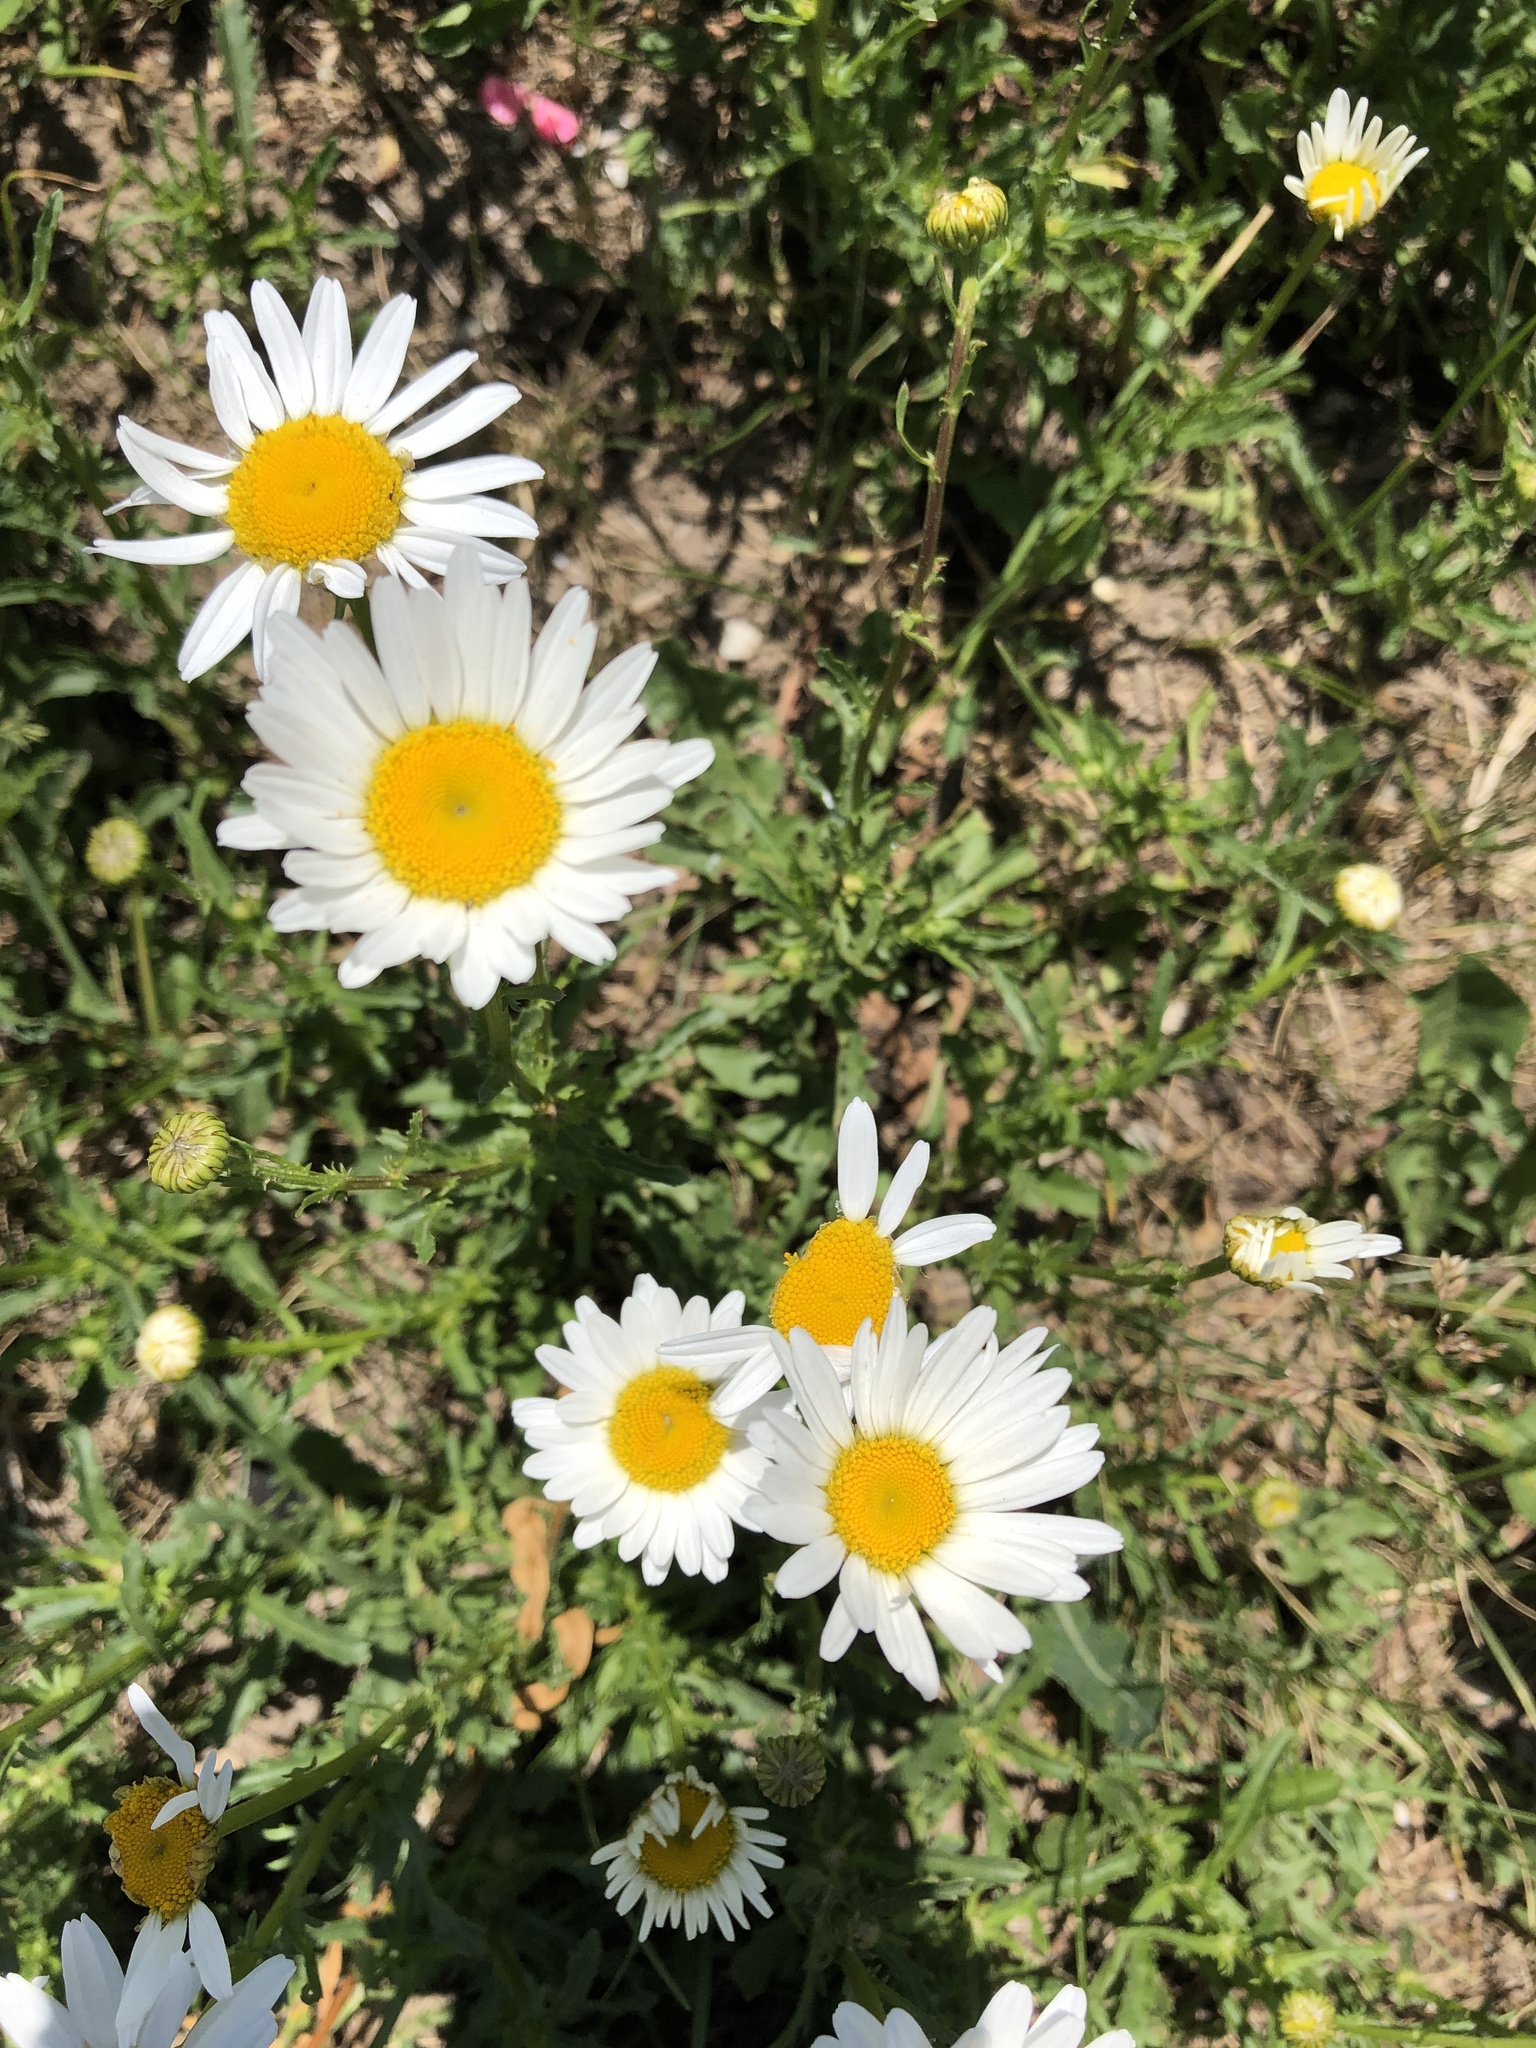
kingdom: Plantae
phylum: Tracheophyta
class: Magnoliopsida
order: Asterales
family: Asteraceae
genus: Leucanthemum
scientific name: Leucanthemum vulgare
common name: Oxeye daisy
